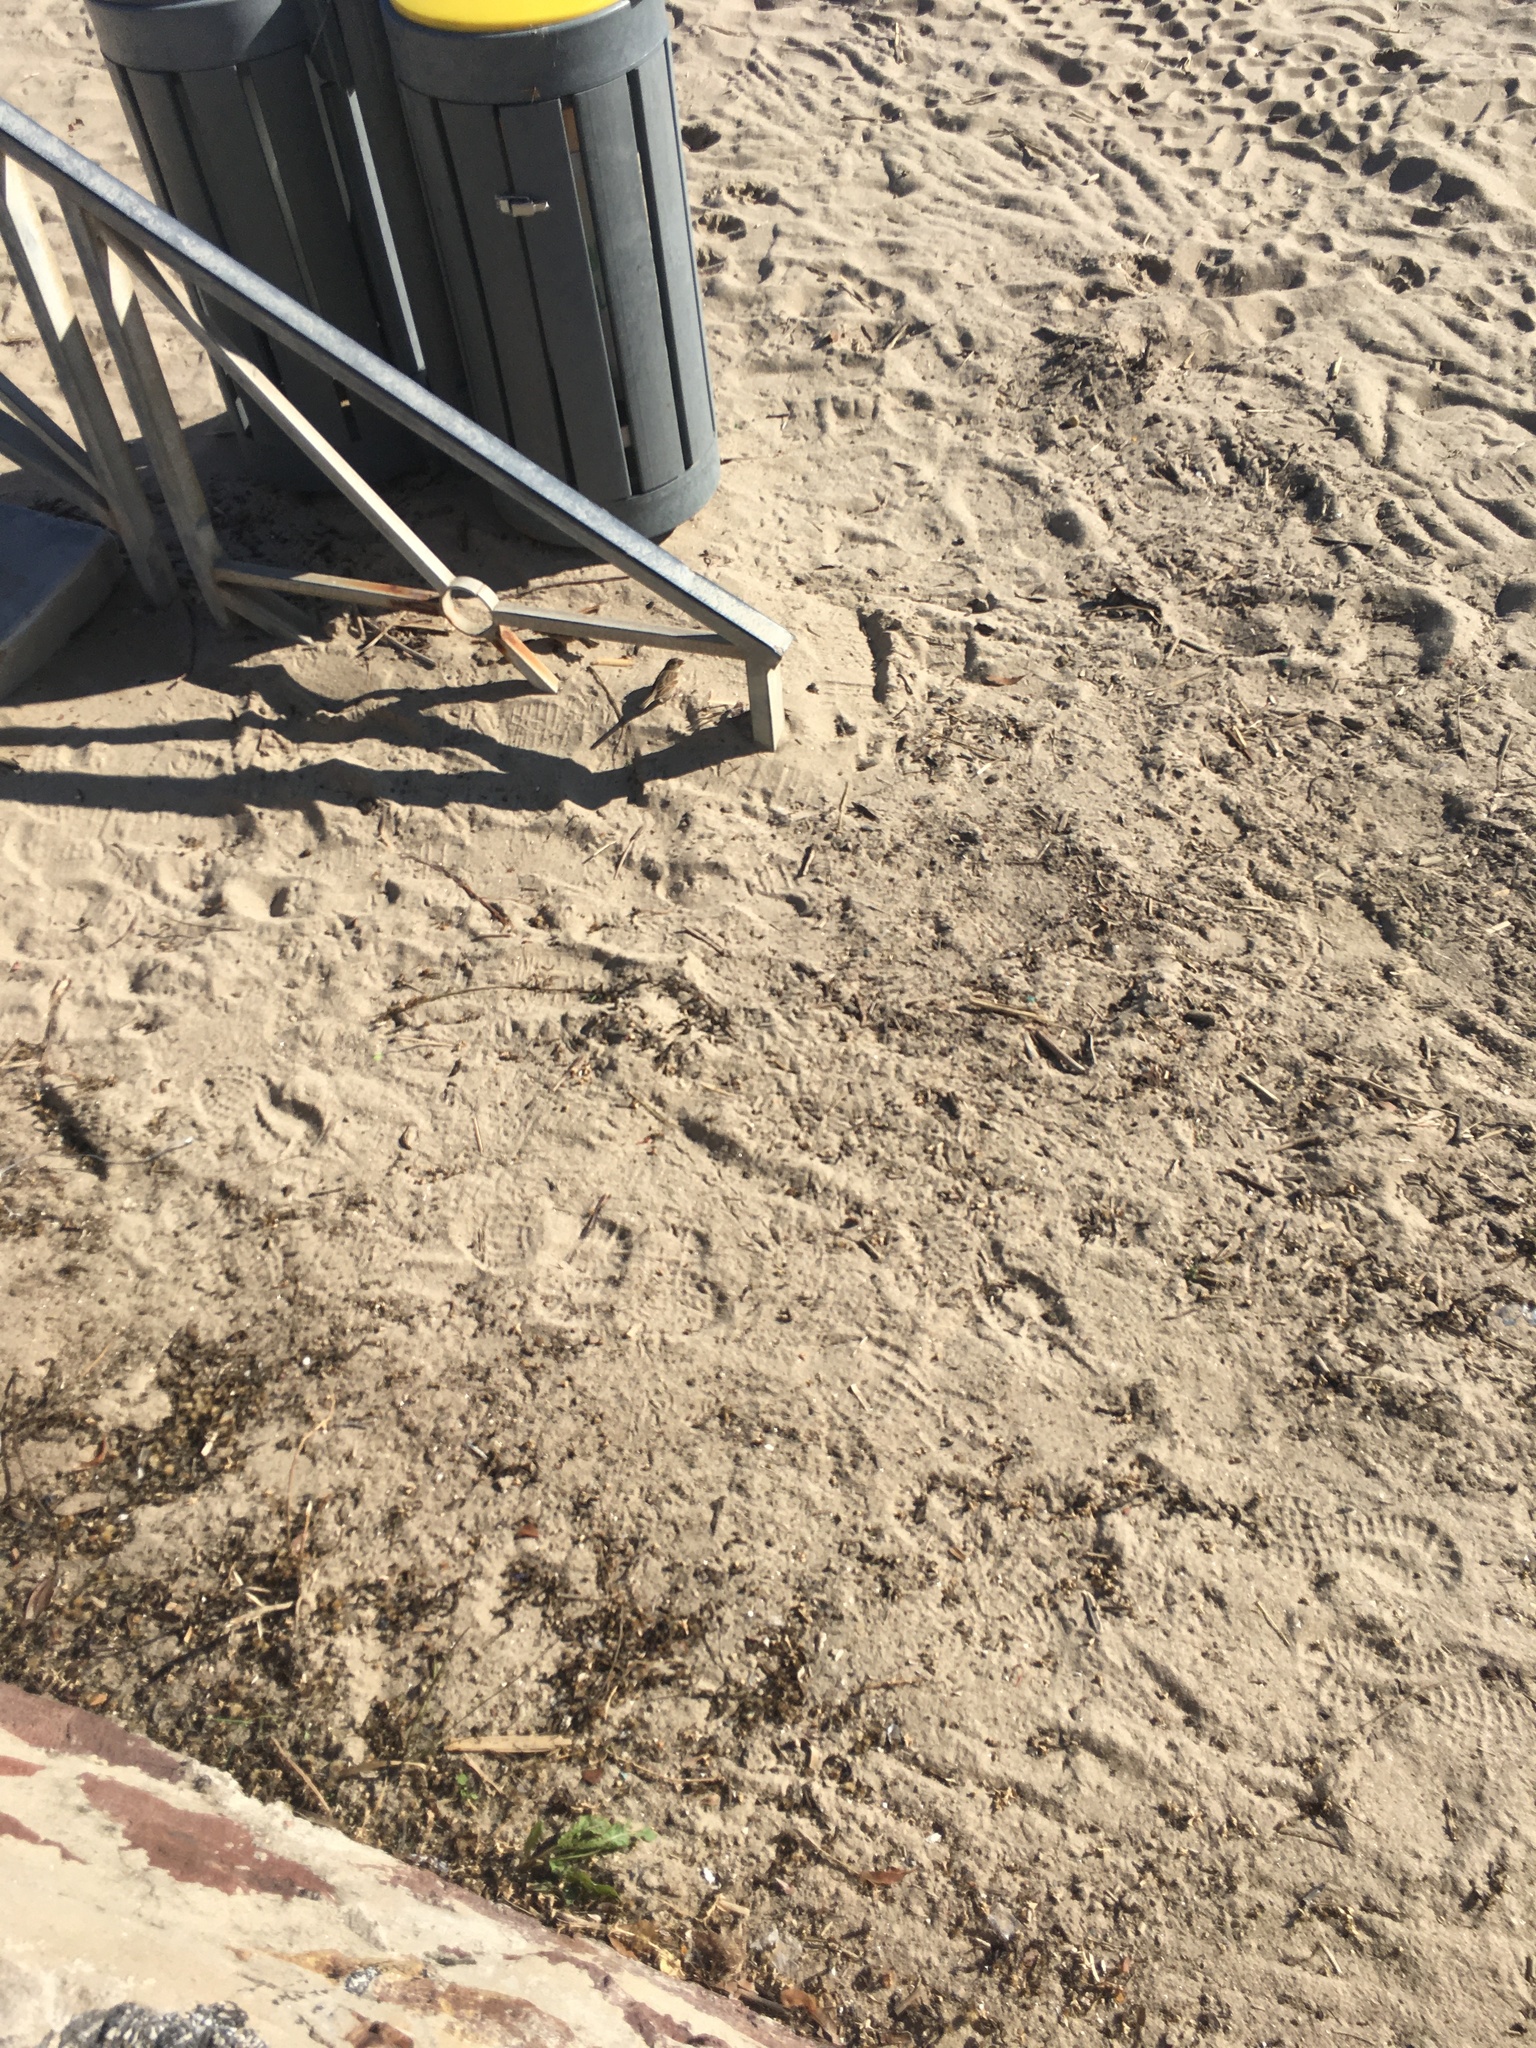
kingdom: Animalia
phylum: Chordata
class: Aves
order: Passeriformes
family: Passeridae
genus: Passer
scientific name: Passer domesticus
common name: House sparrow
